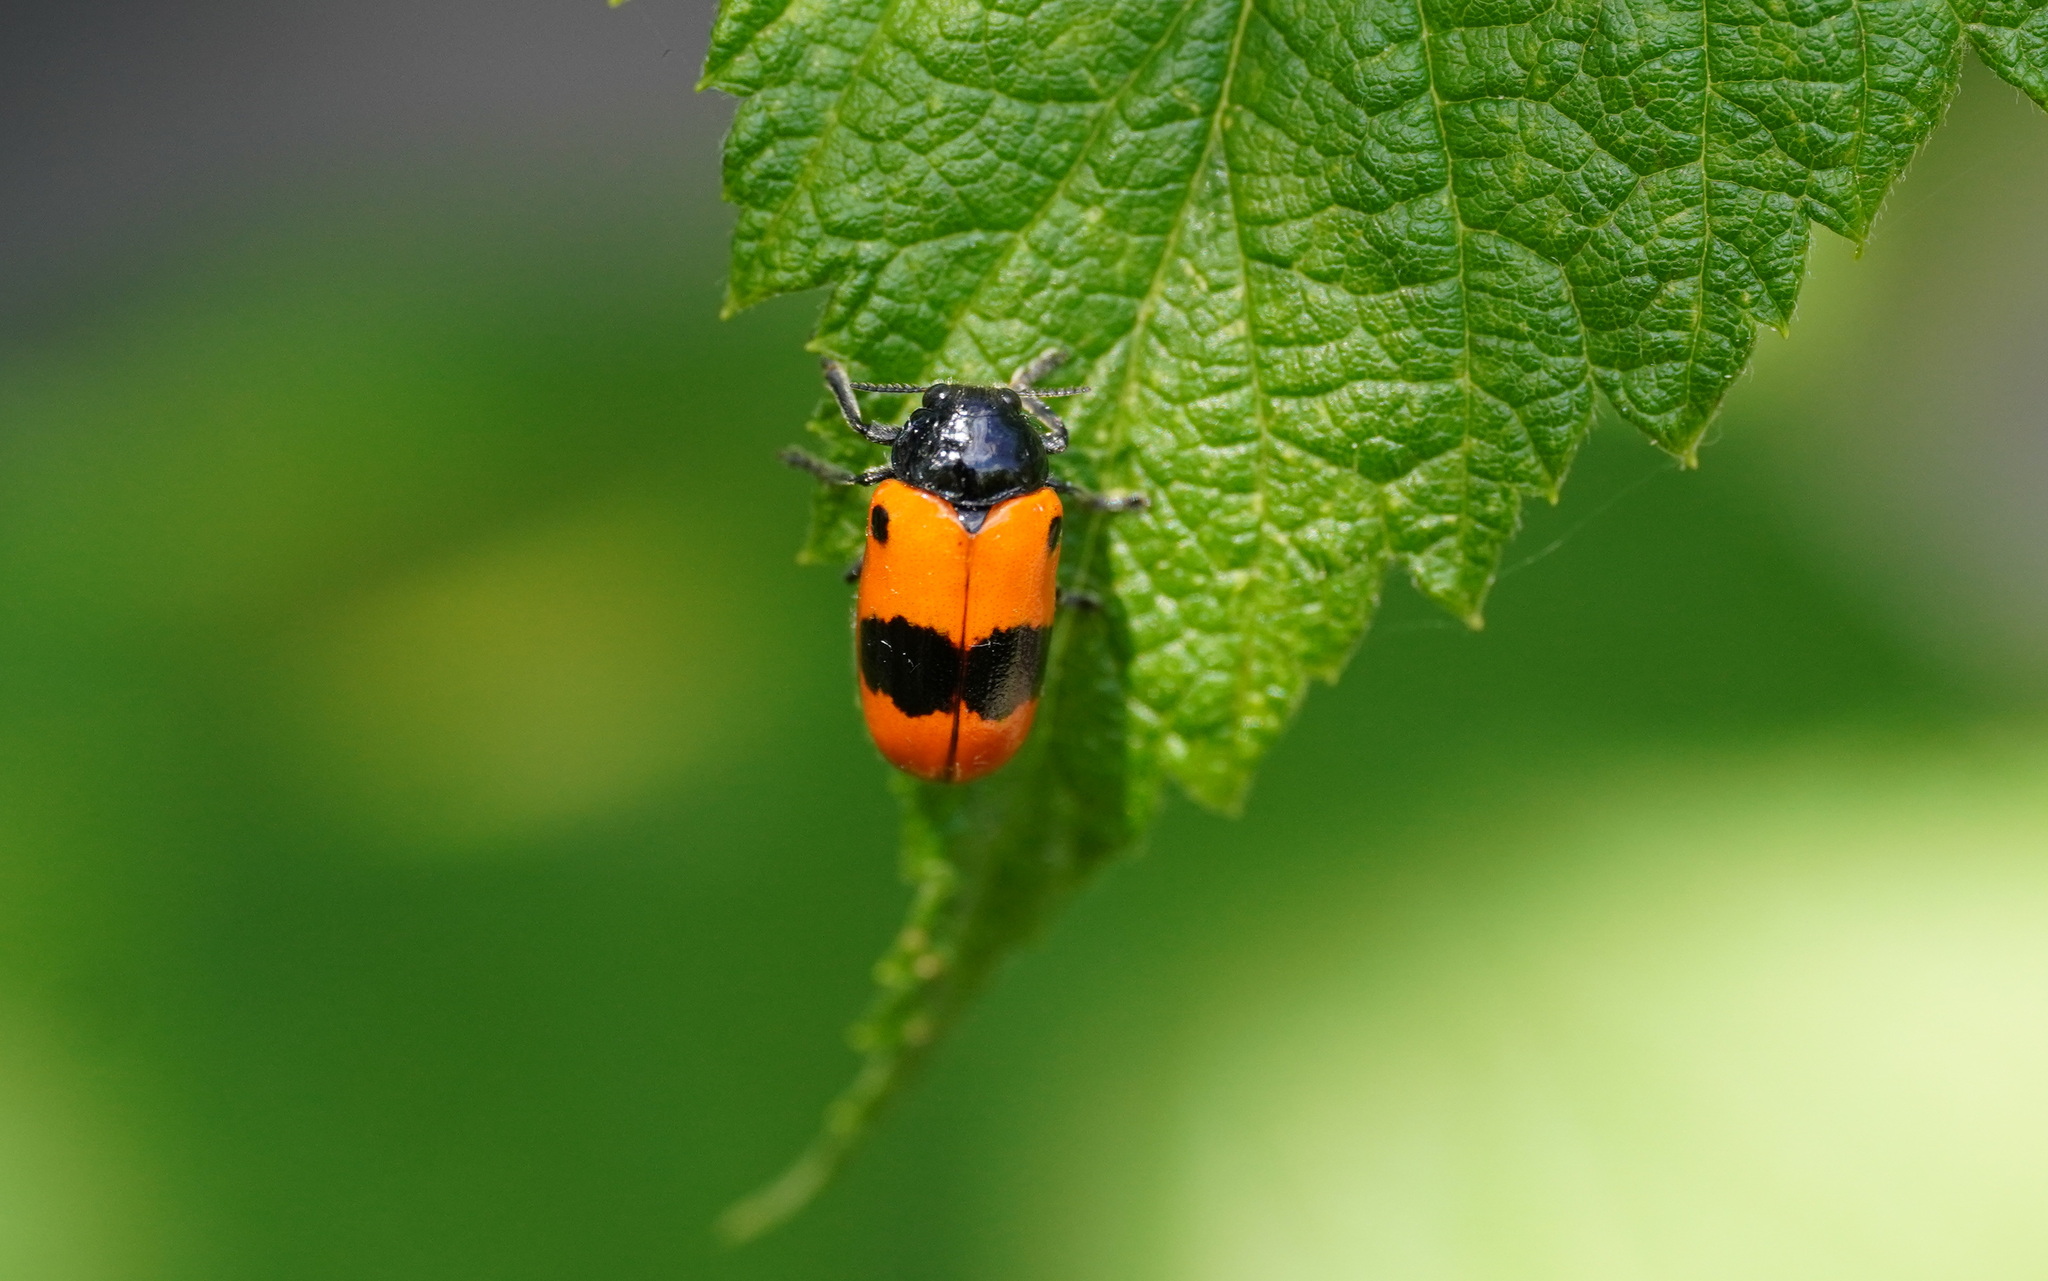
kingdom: Animalia
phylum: Arthropoda
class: Insecta
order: Coleoptera
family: Chrysomelidae
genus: Clytra
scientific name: Clytra laeviuscula
